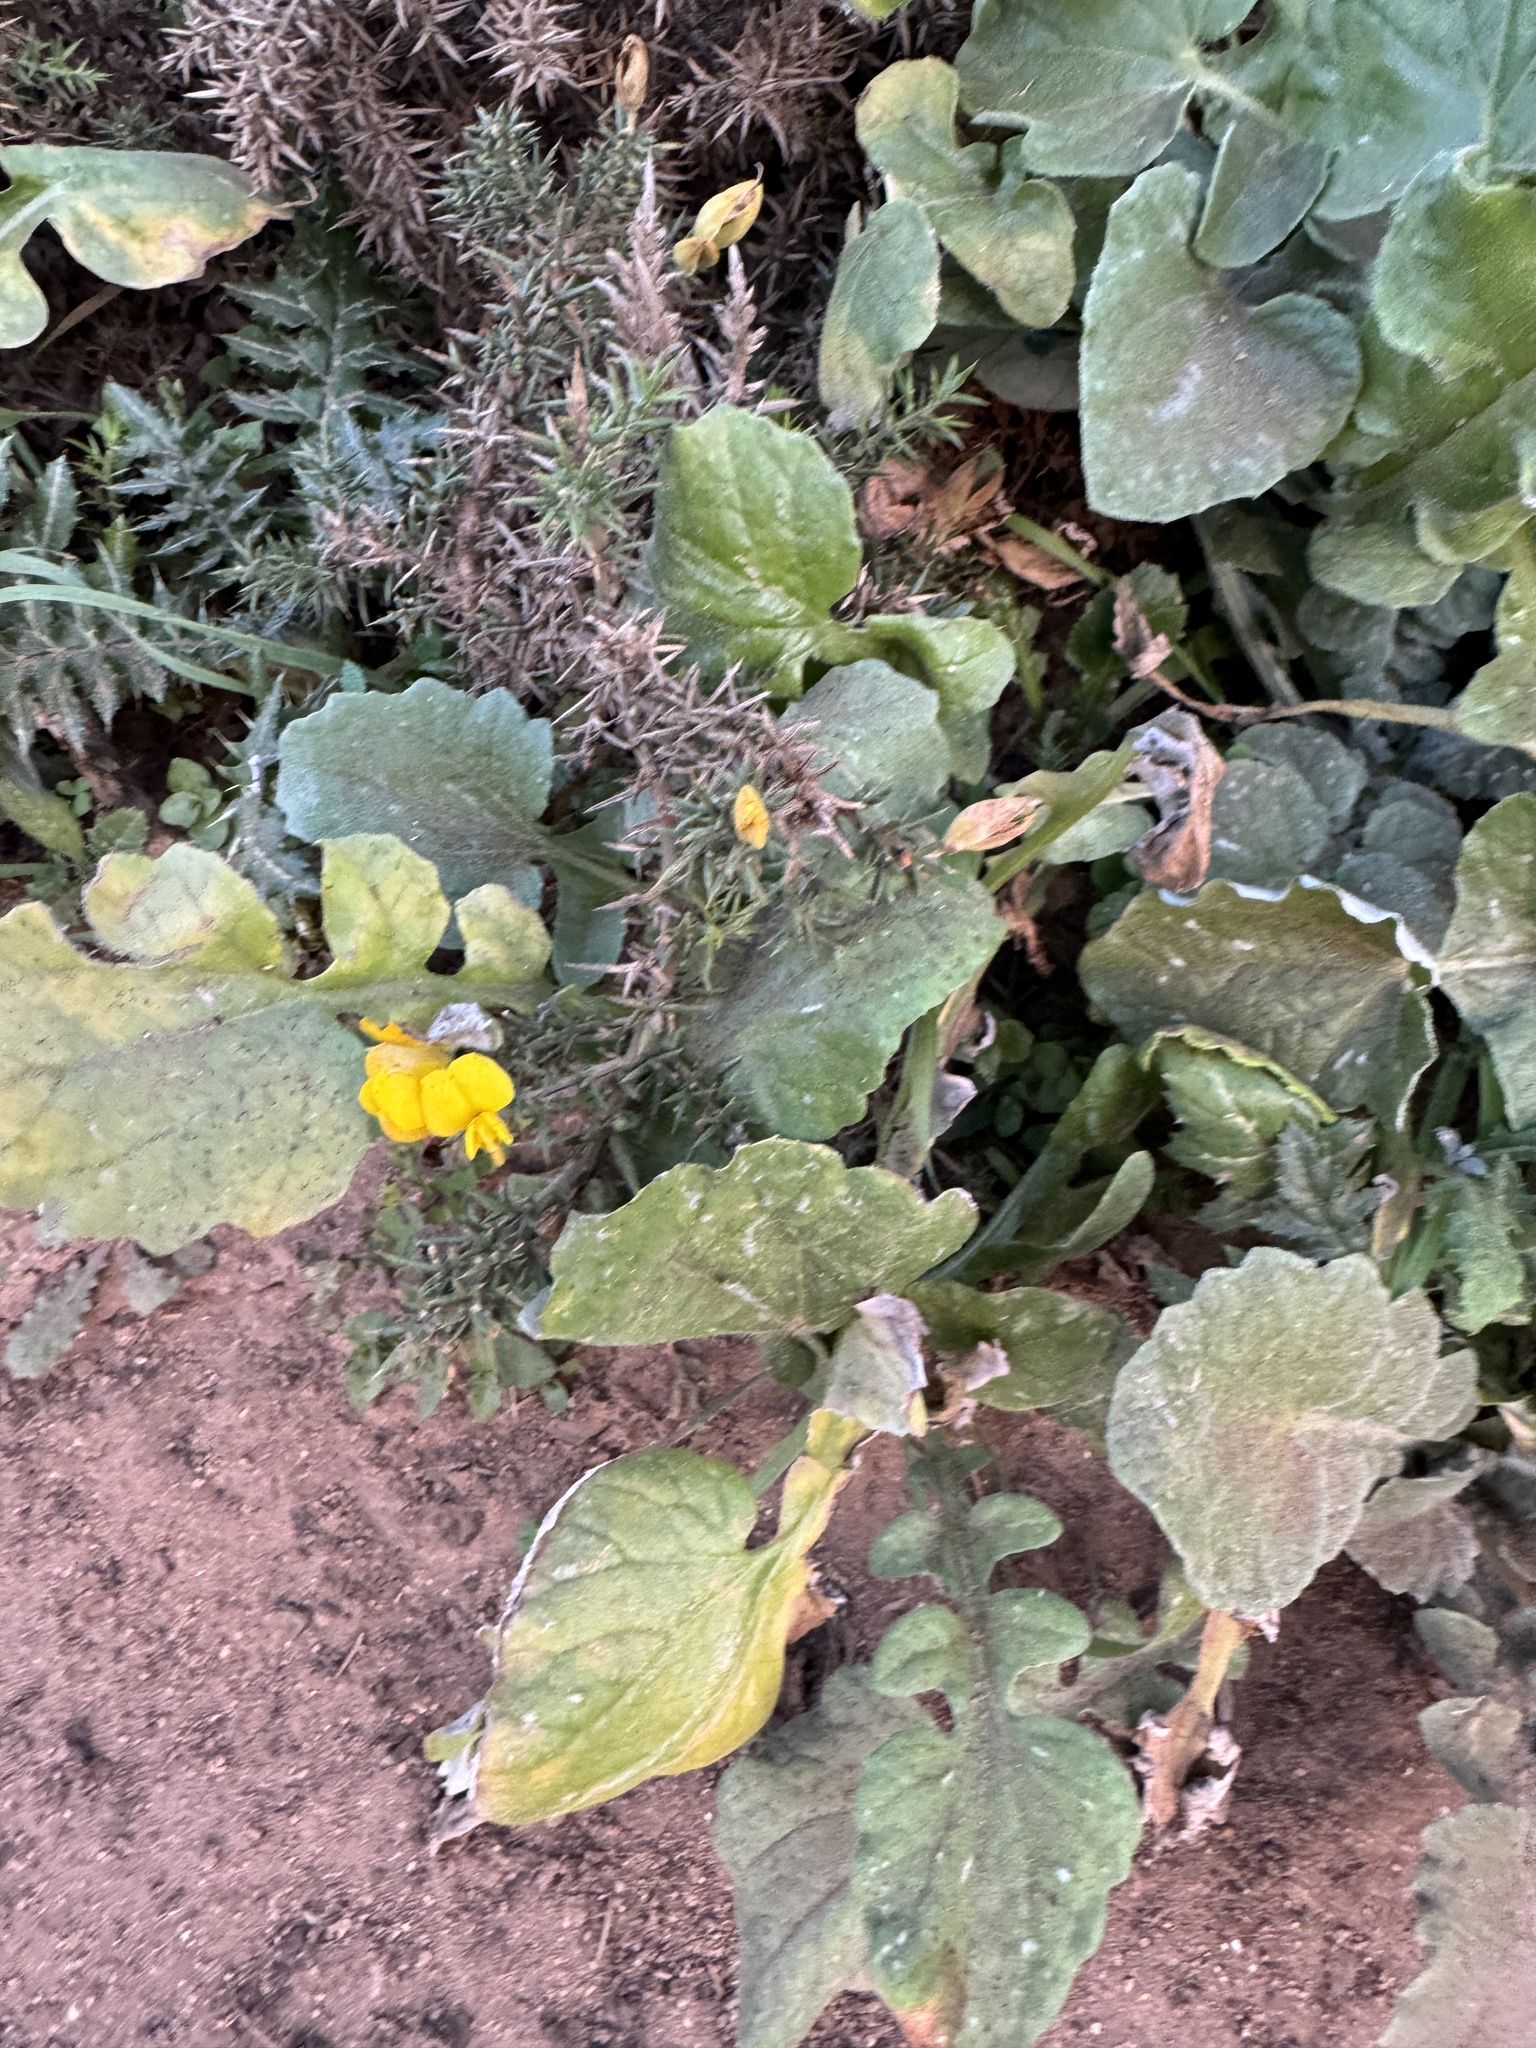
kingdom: Plantae
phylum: Tracheophyta
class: Magnoliopsida
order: Fabales
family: Fabaceae
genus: Ulex
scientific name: Ulex jussiaei
